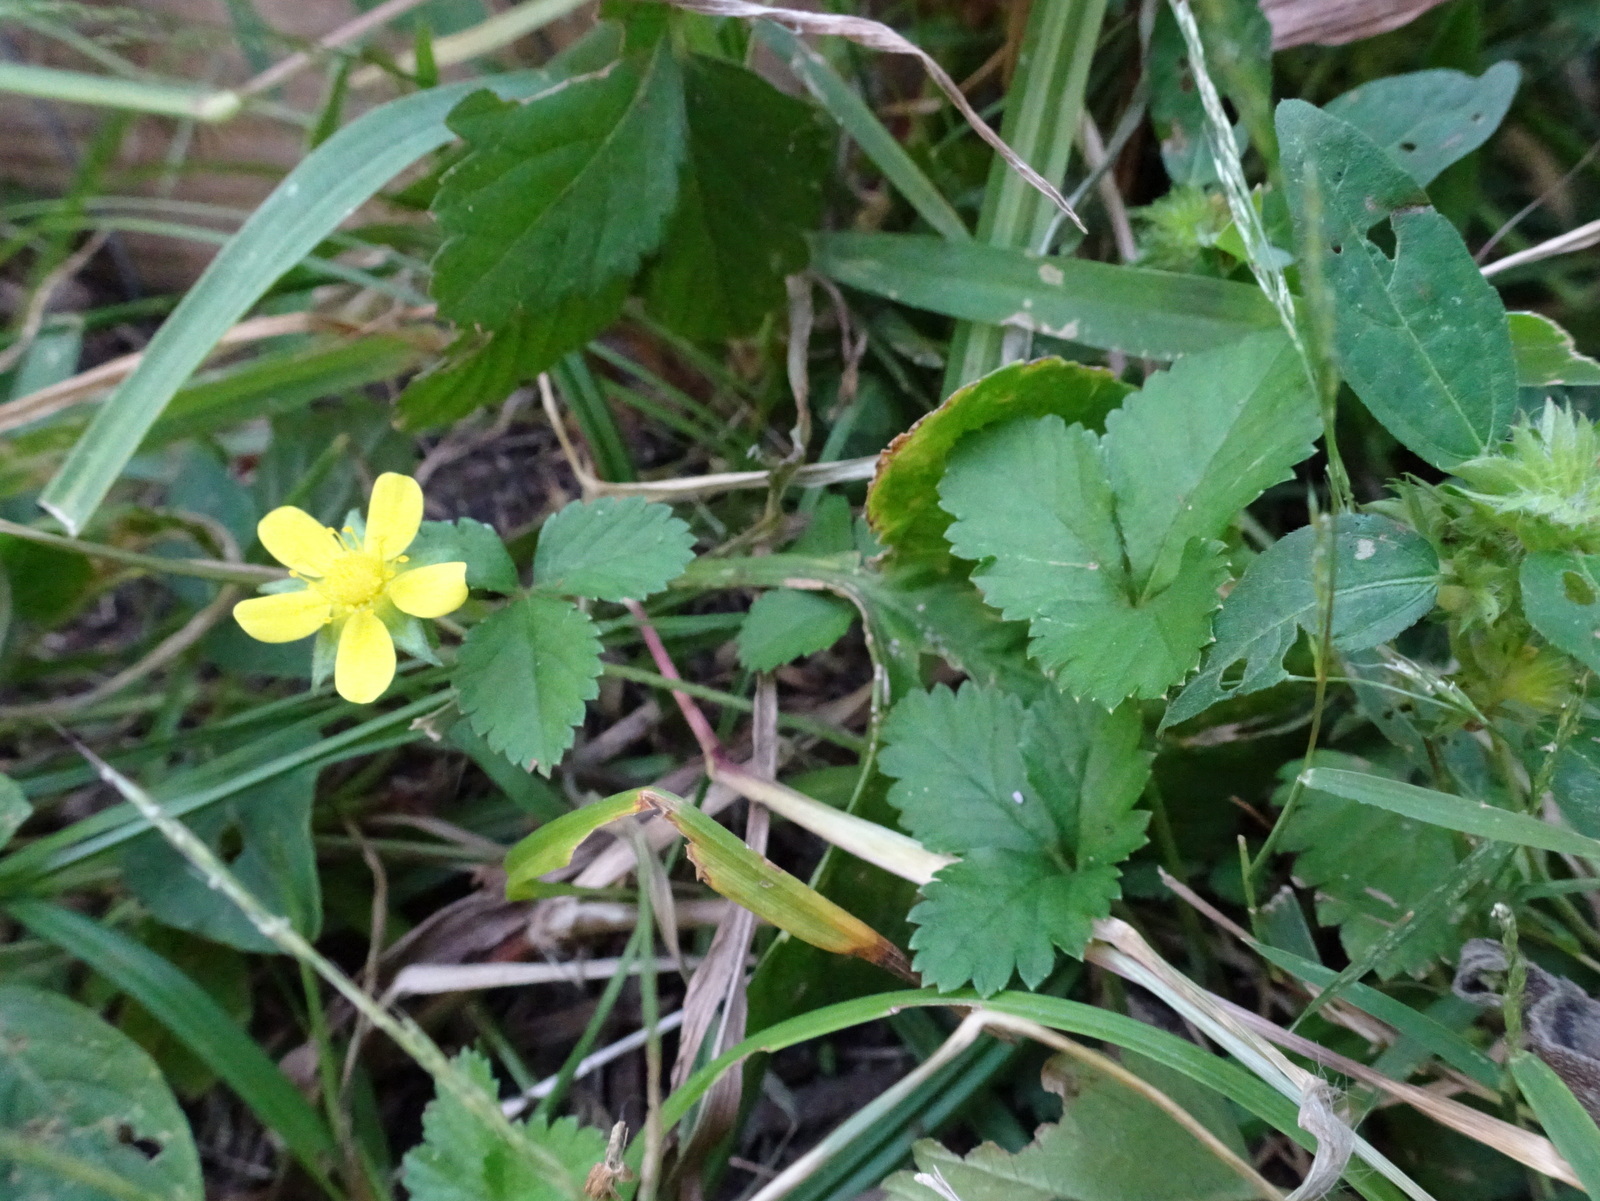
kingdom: Plantae
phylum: Tracheophyta
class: Magnoliopsida
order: Rosales
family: Rosaceae
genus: Potentilla
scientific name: Potentilla indica
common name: Yellow-flowered strawberry
